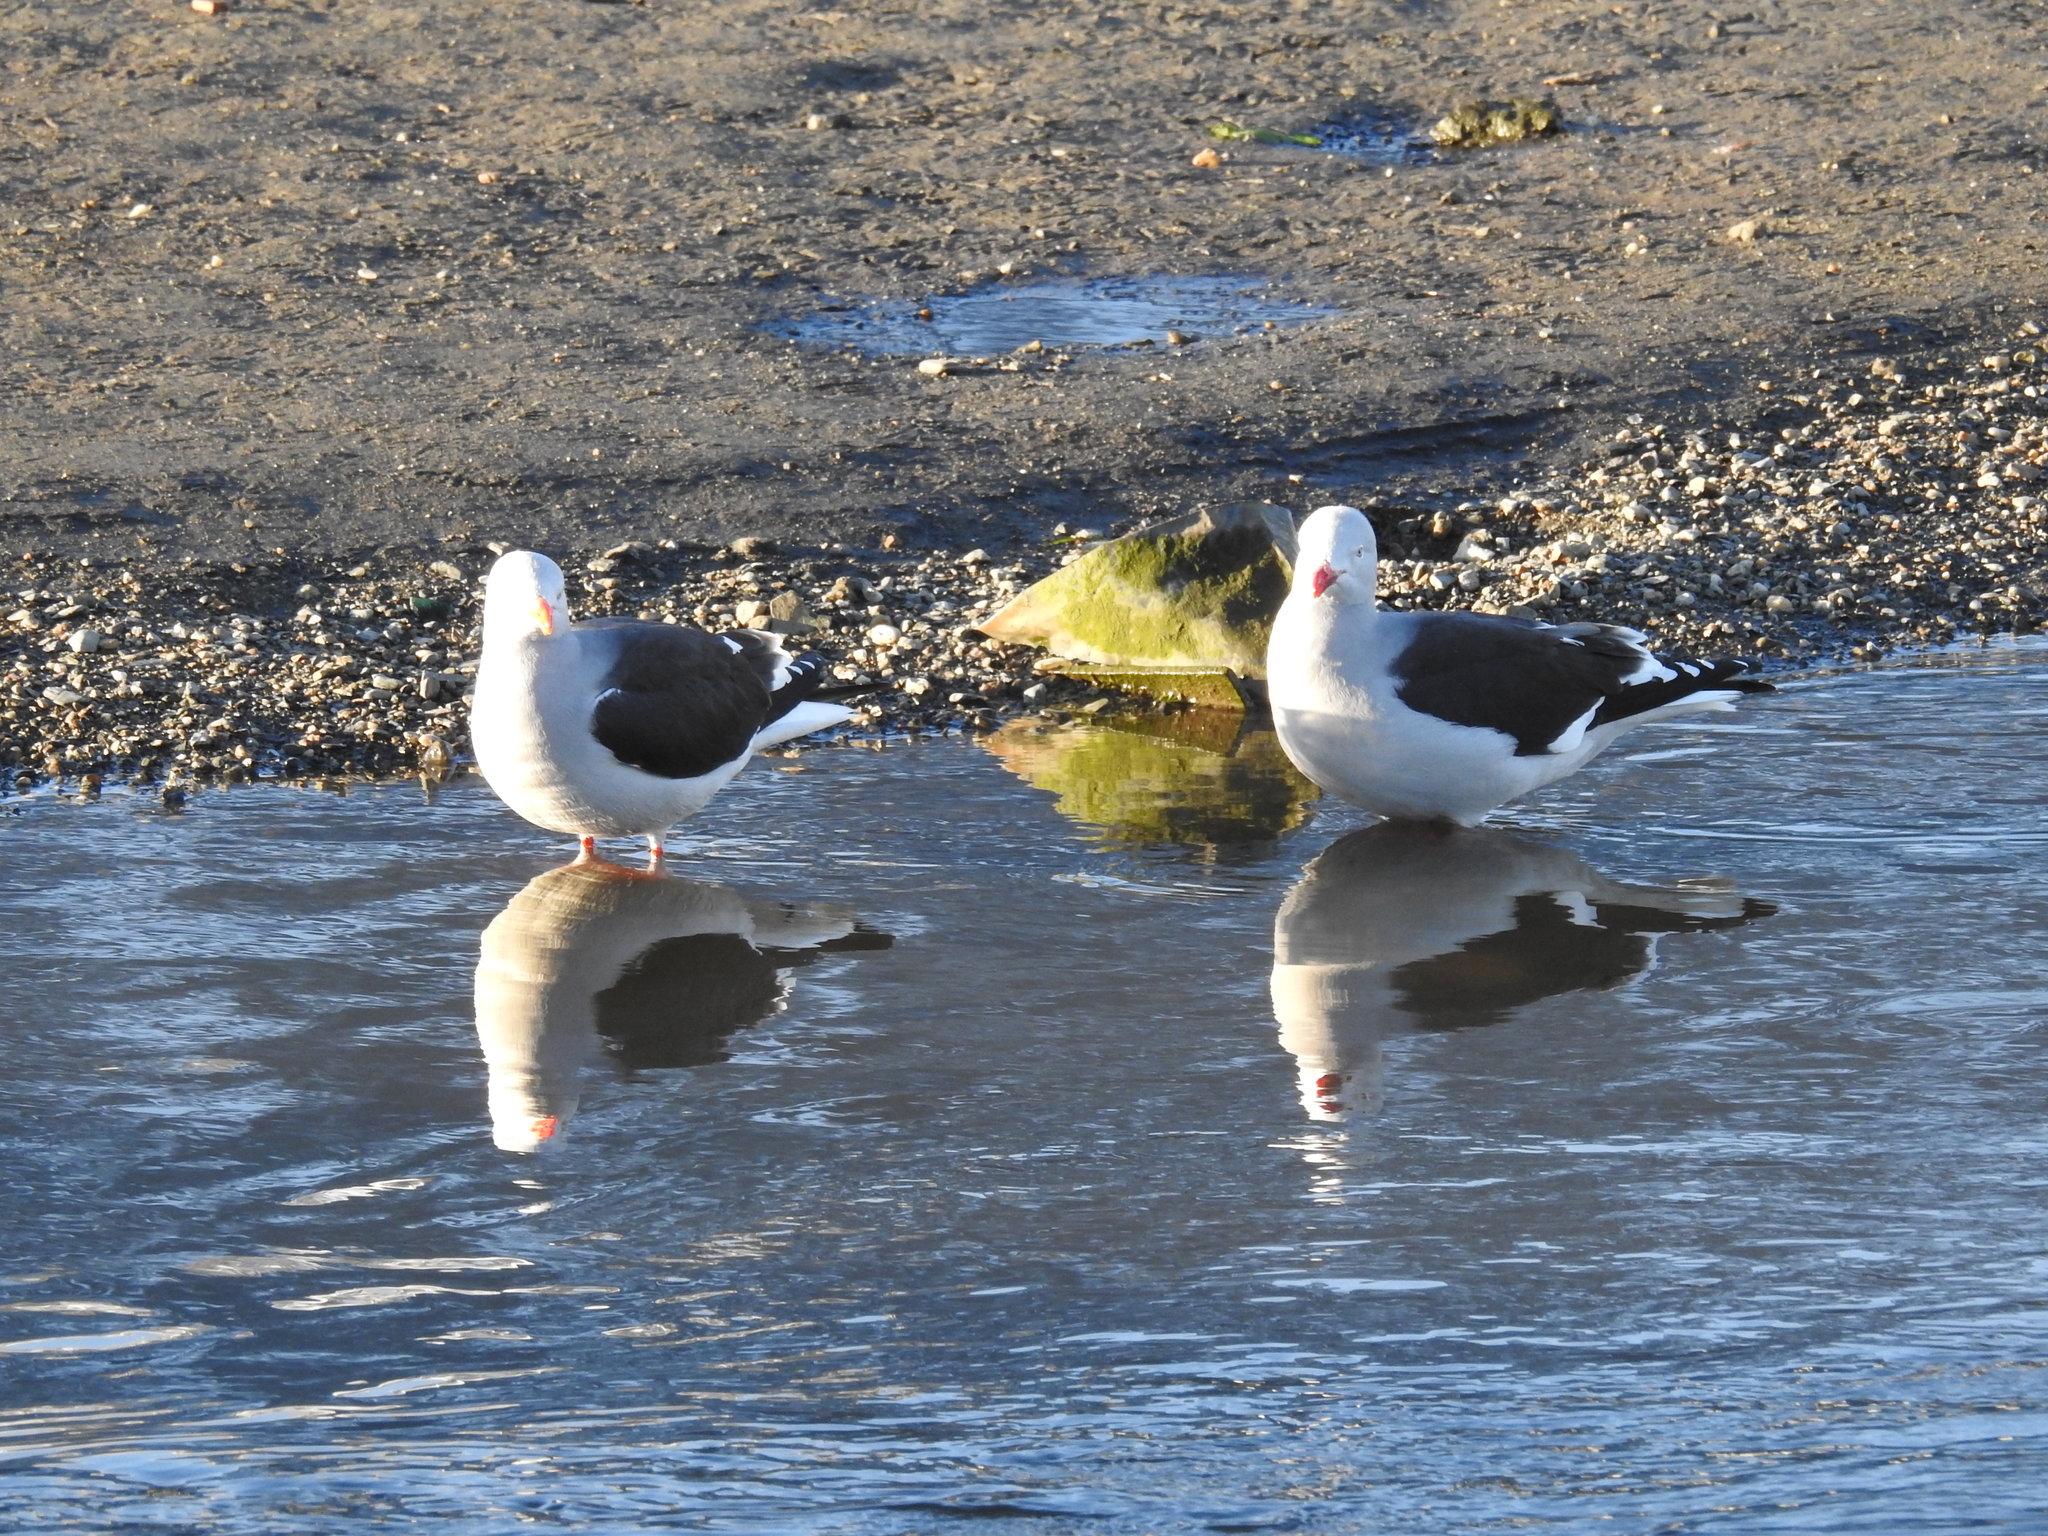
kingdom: Animalia
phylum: Chordata
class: Aves
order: Charadriiformes
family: Laridae
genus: Larus
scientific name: Larus dominicanus
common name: Kelp gull
